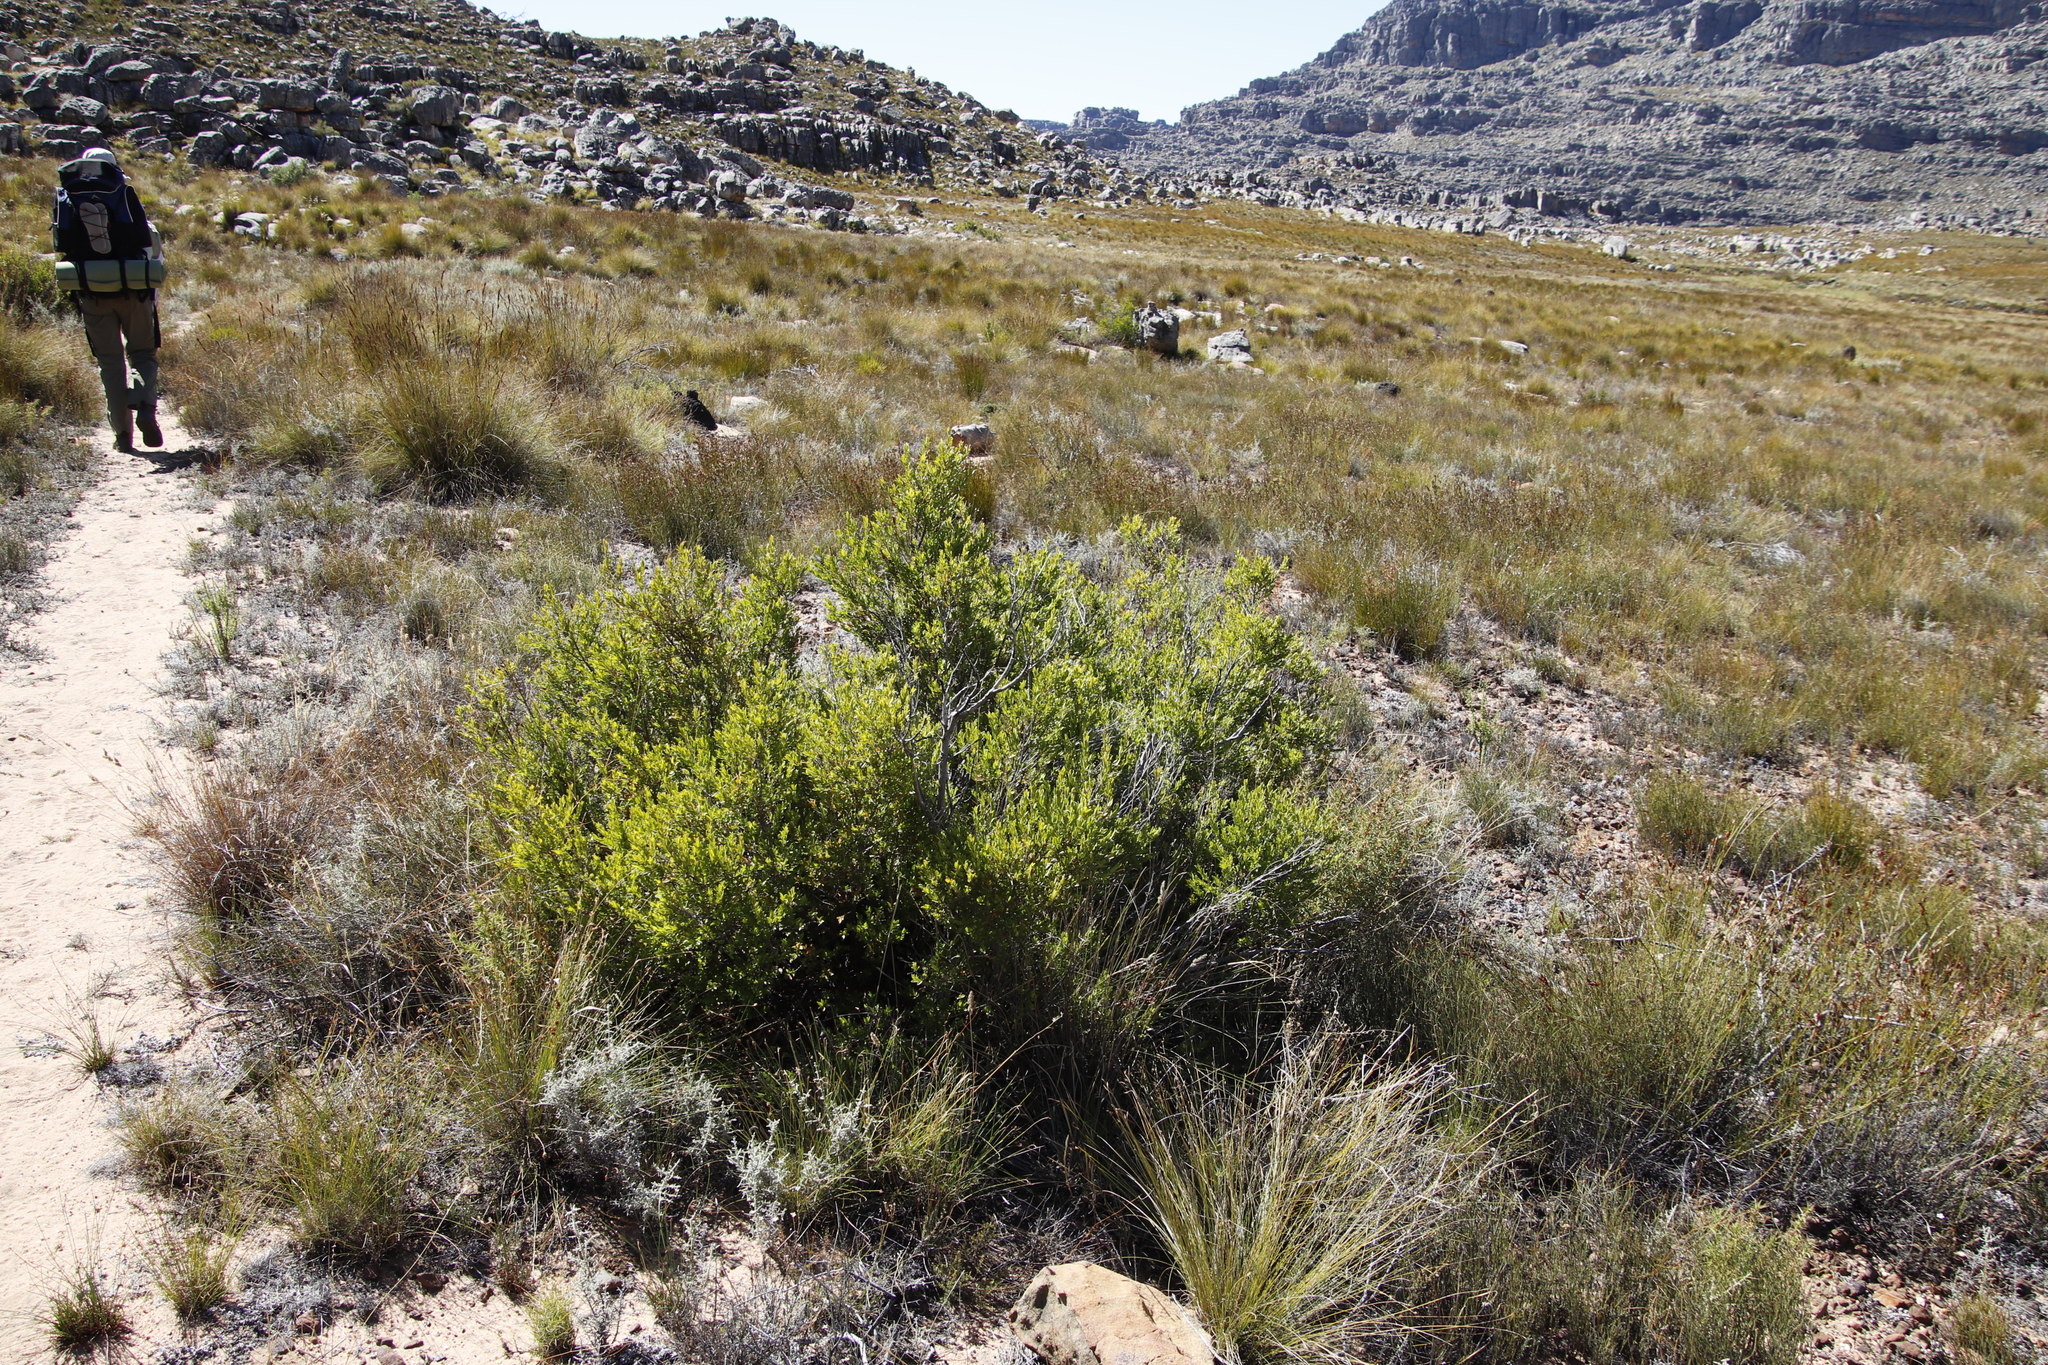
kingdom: Plantae
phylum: Tracheophyta
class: Magnoliopsida
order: Ericales
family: Ebenaceae
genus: Diospyros
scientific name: Diospyros glabra
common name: Fynbos star apple
